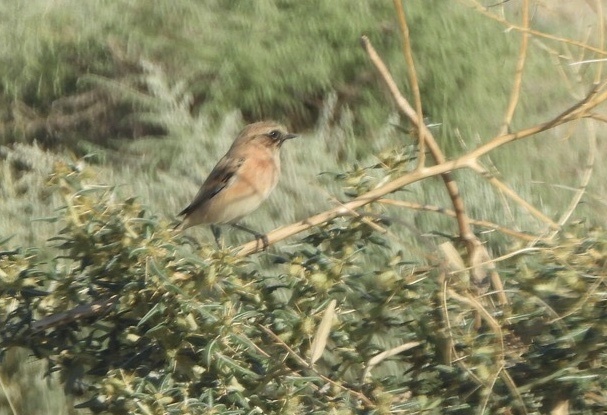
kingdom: Animalia
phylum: Chordata
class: Aves
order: Passeriformes
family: Muscicapidae
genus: Saxicola
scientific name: Saxicola maurus
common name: Siberian stonechat
